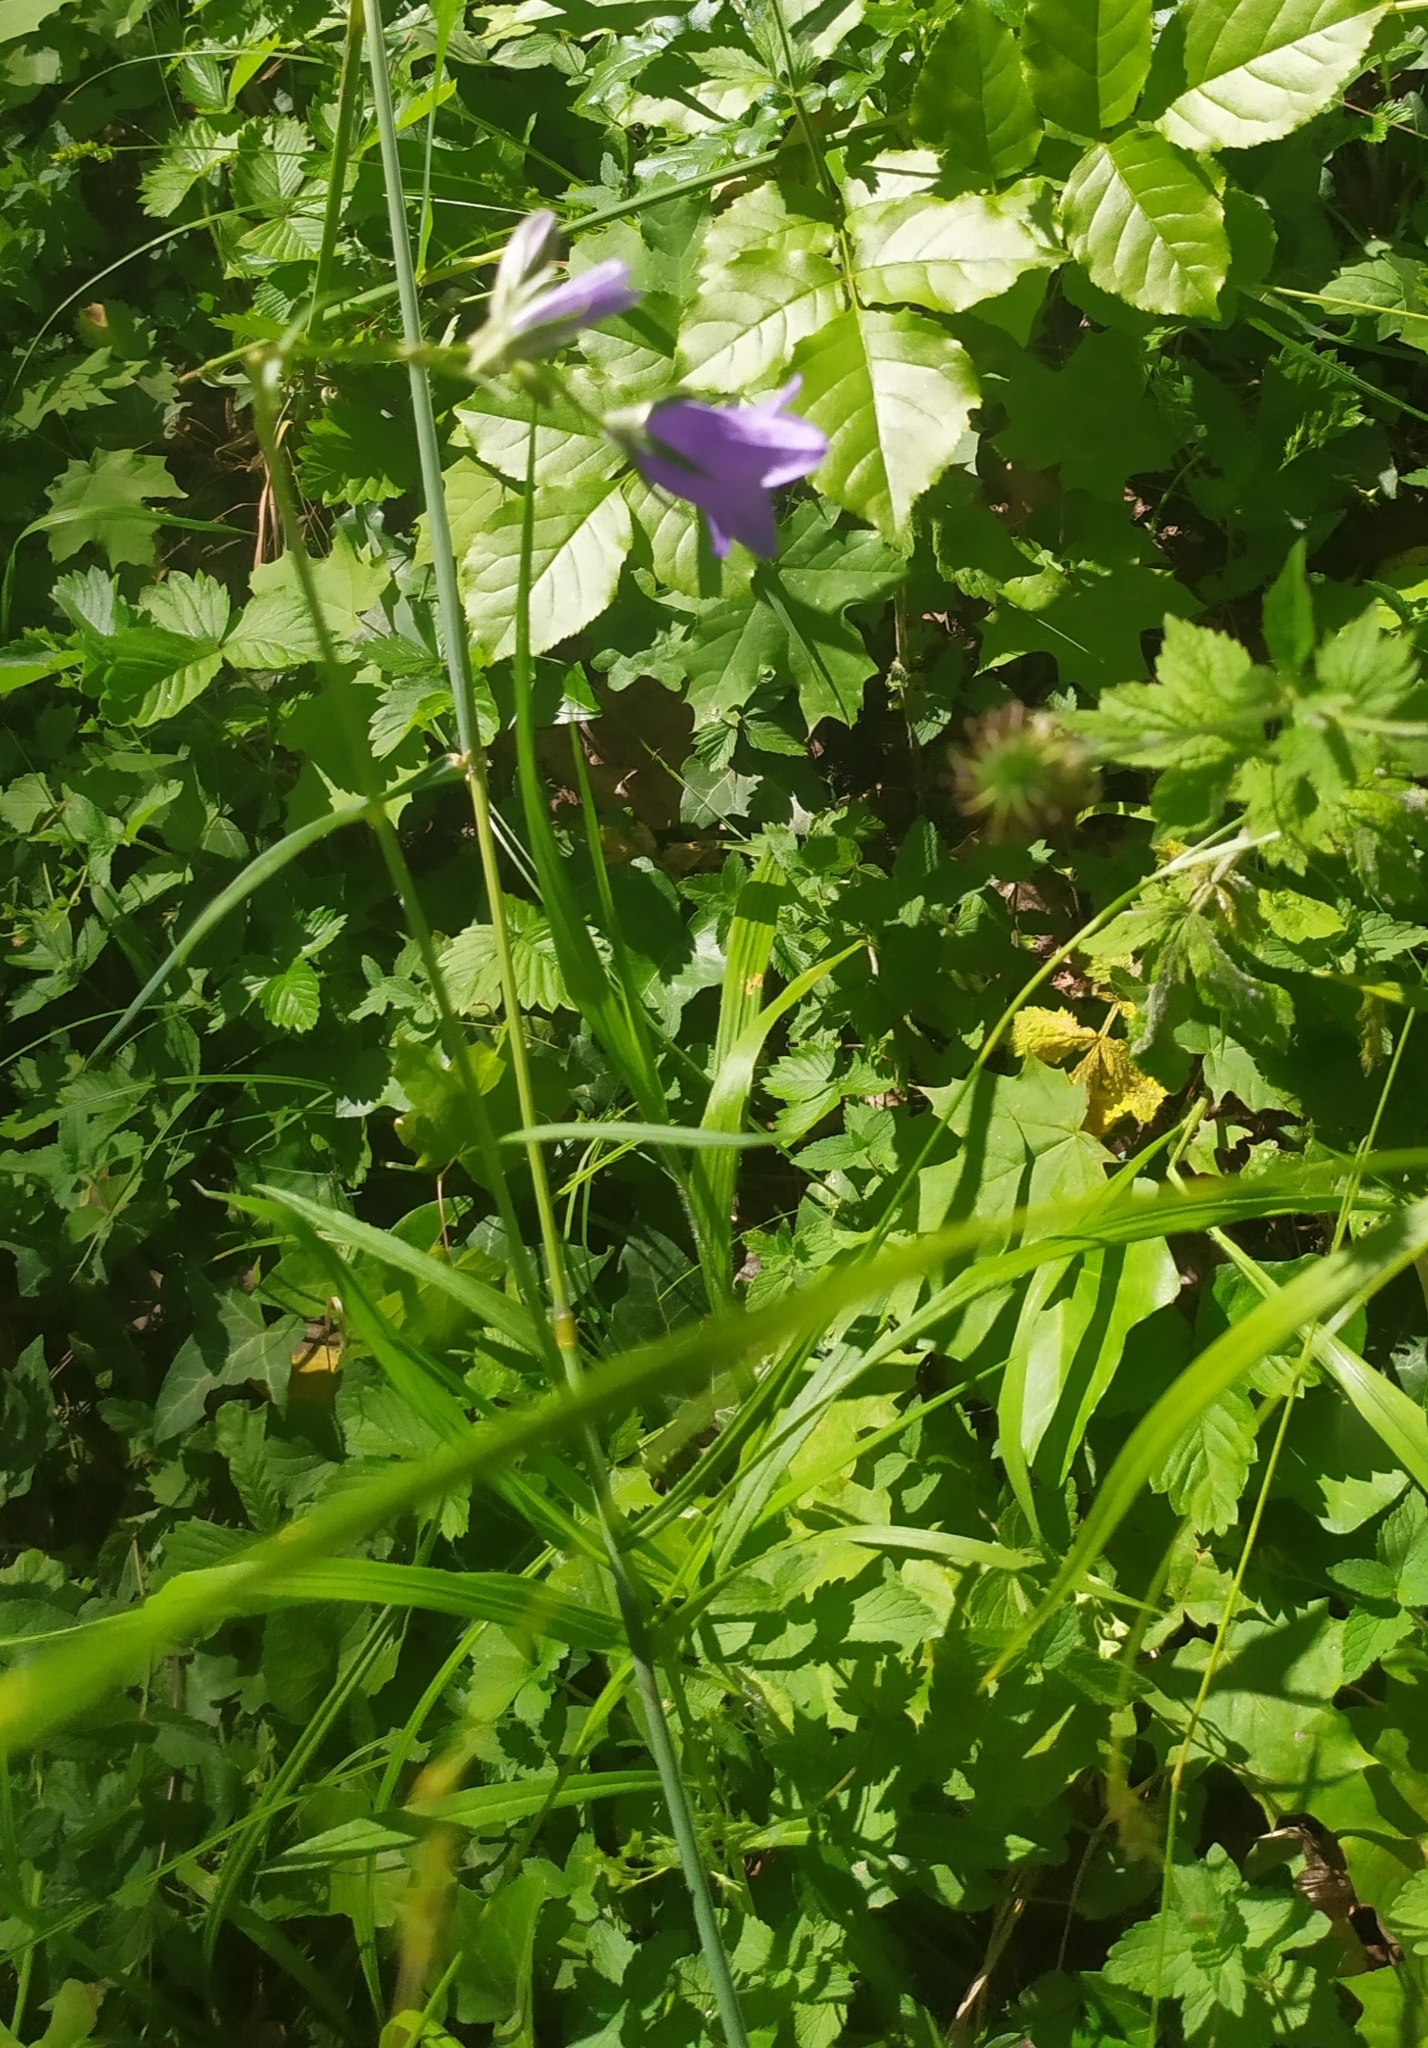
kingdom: Plantae
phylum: Tracheophyta
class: Magnoliopsida
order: Asterales
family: Campanulaceae
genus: Campanula
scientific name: Campanula persicifolia
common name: Peach-leaved bellflower
